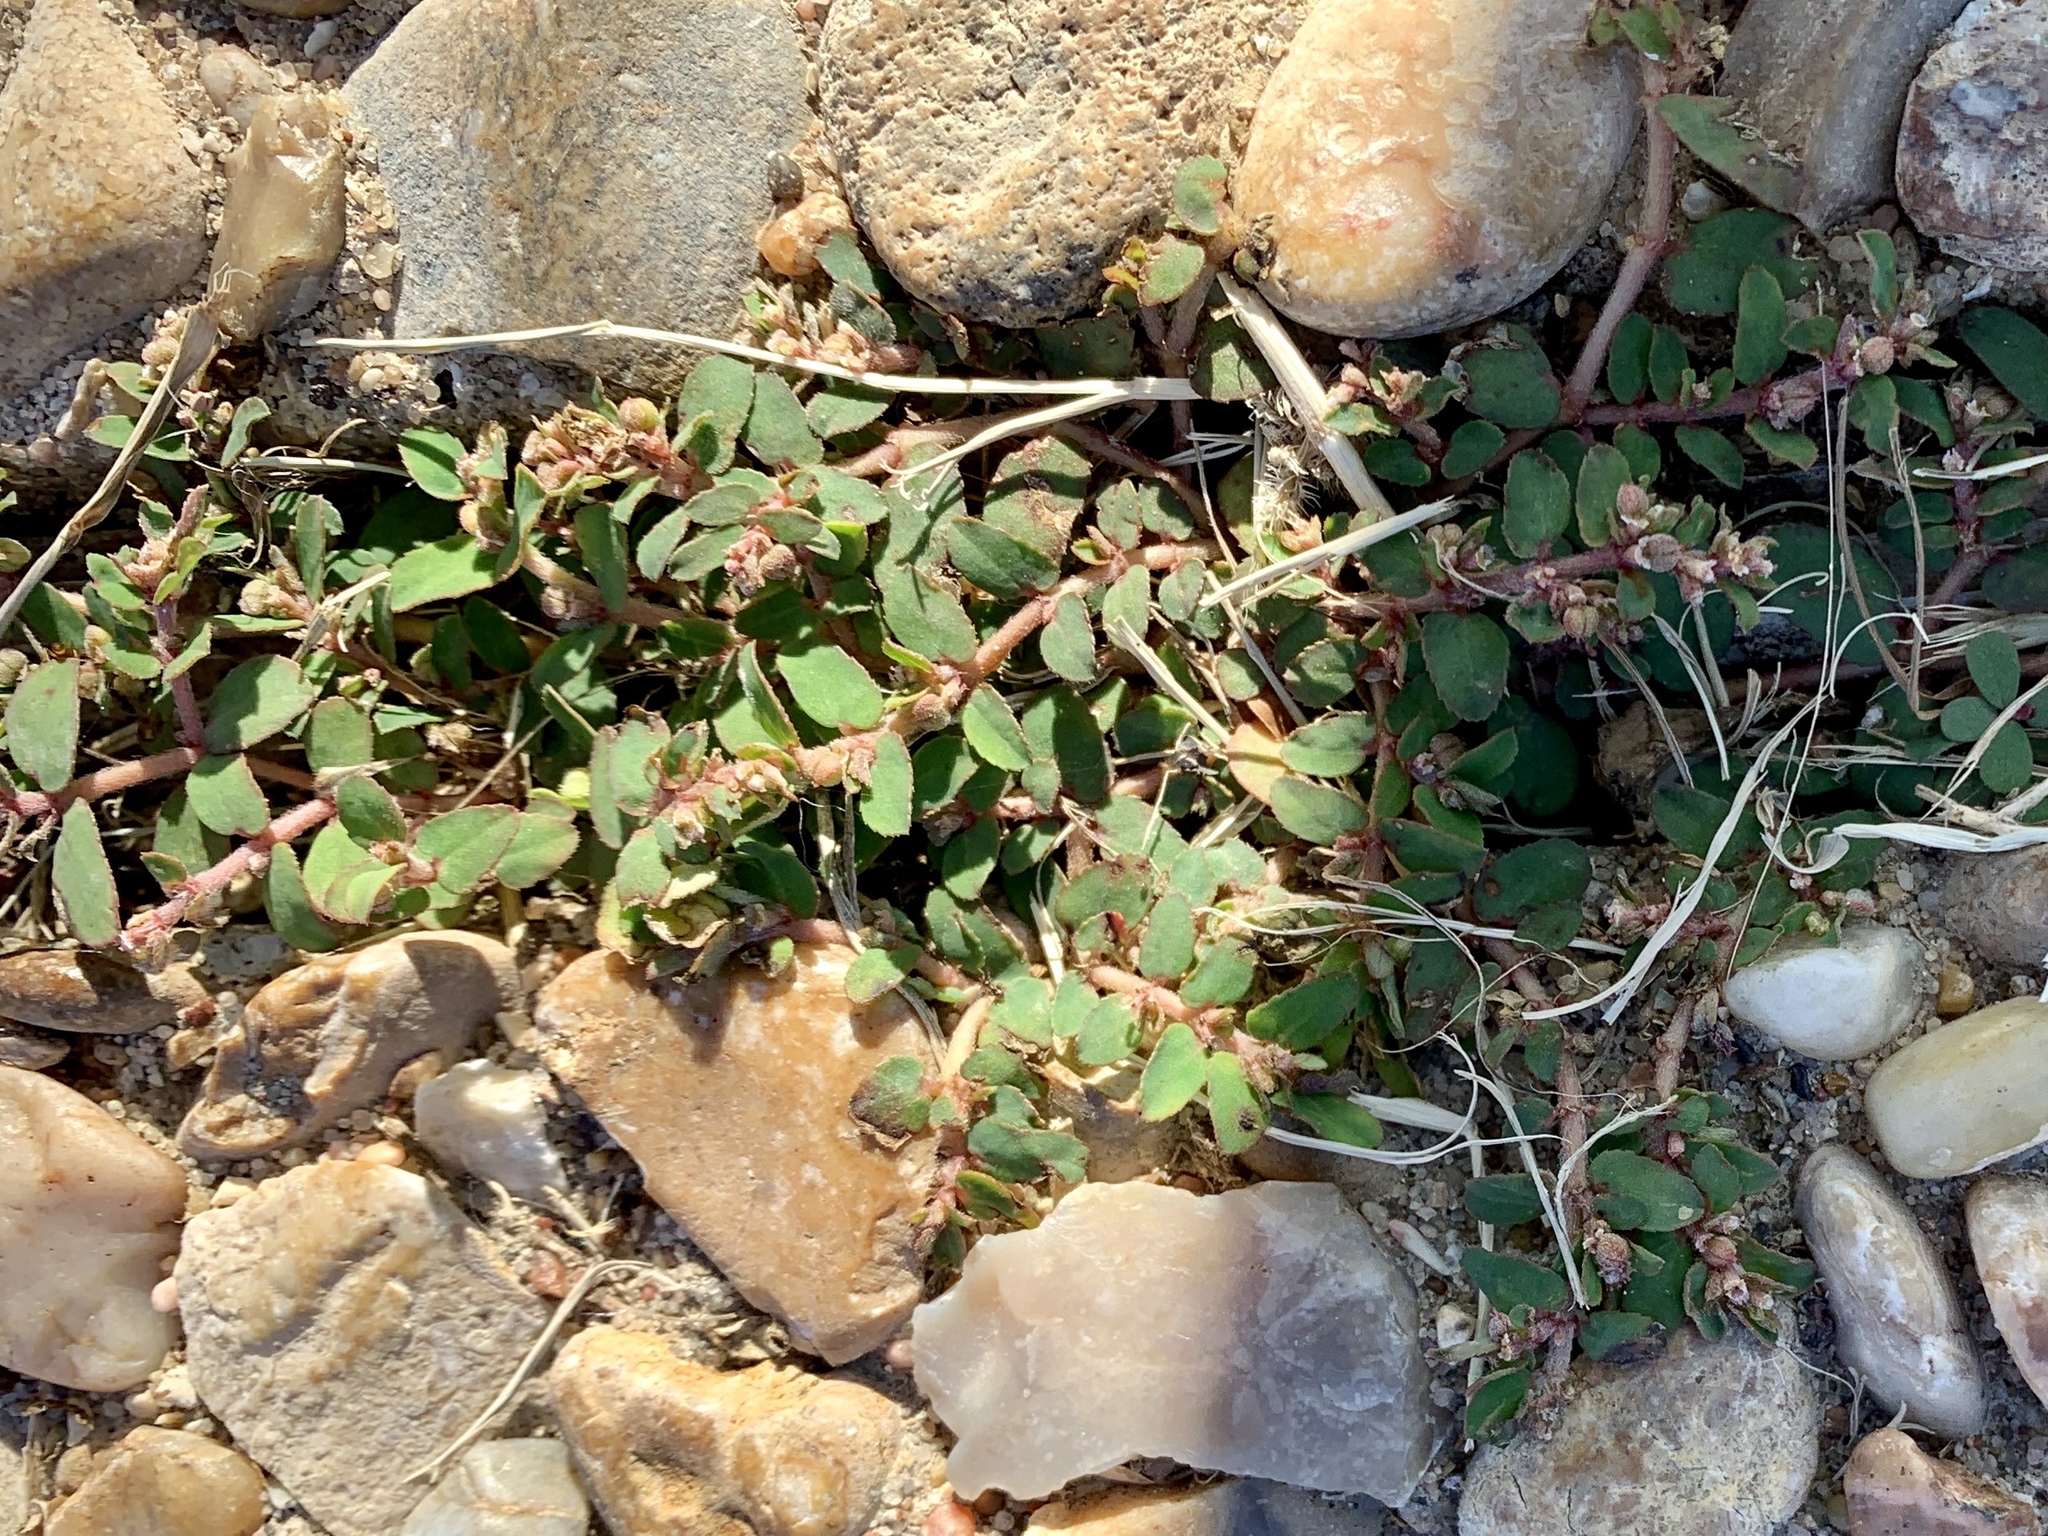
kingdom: Plantae
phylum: Tracheophyta
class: Magnoliopsida
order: Malpighiales
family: Euphorbiaceae
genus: Euphorbia
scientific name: Euphorbia maculata
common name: Spotted spurge
